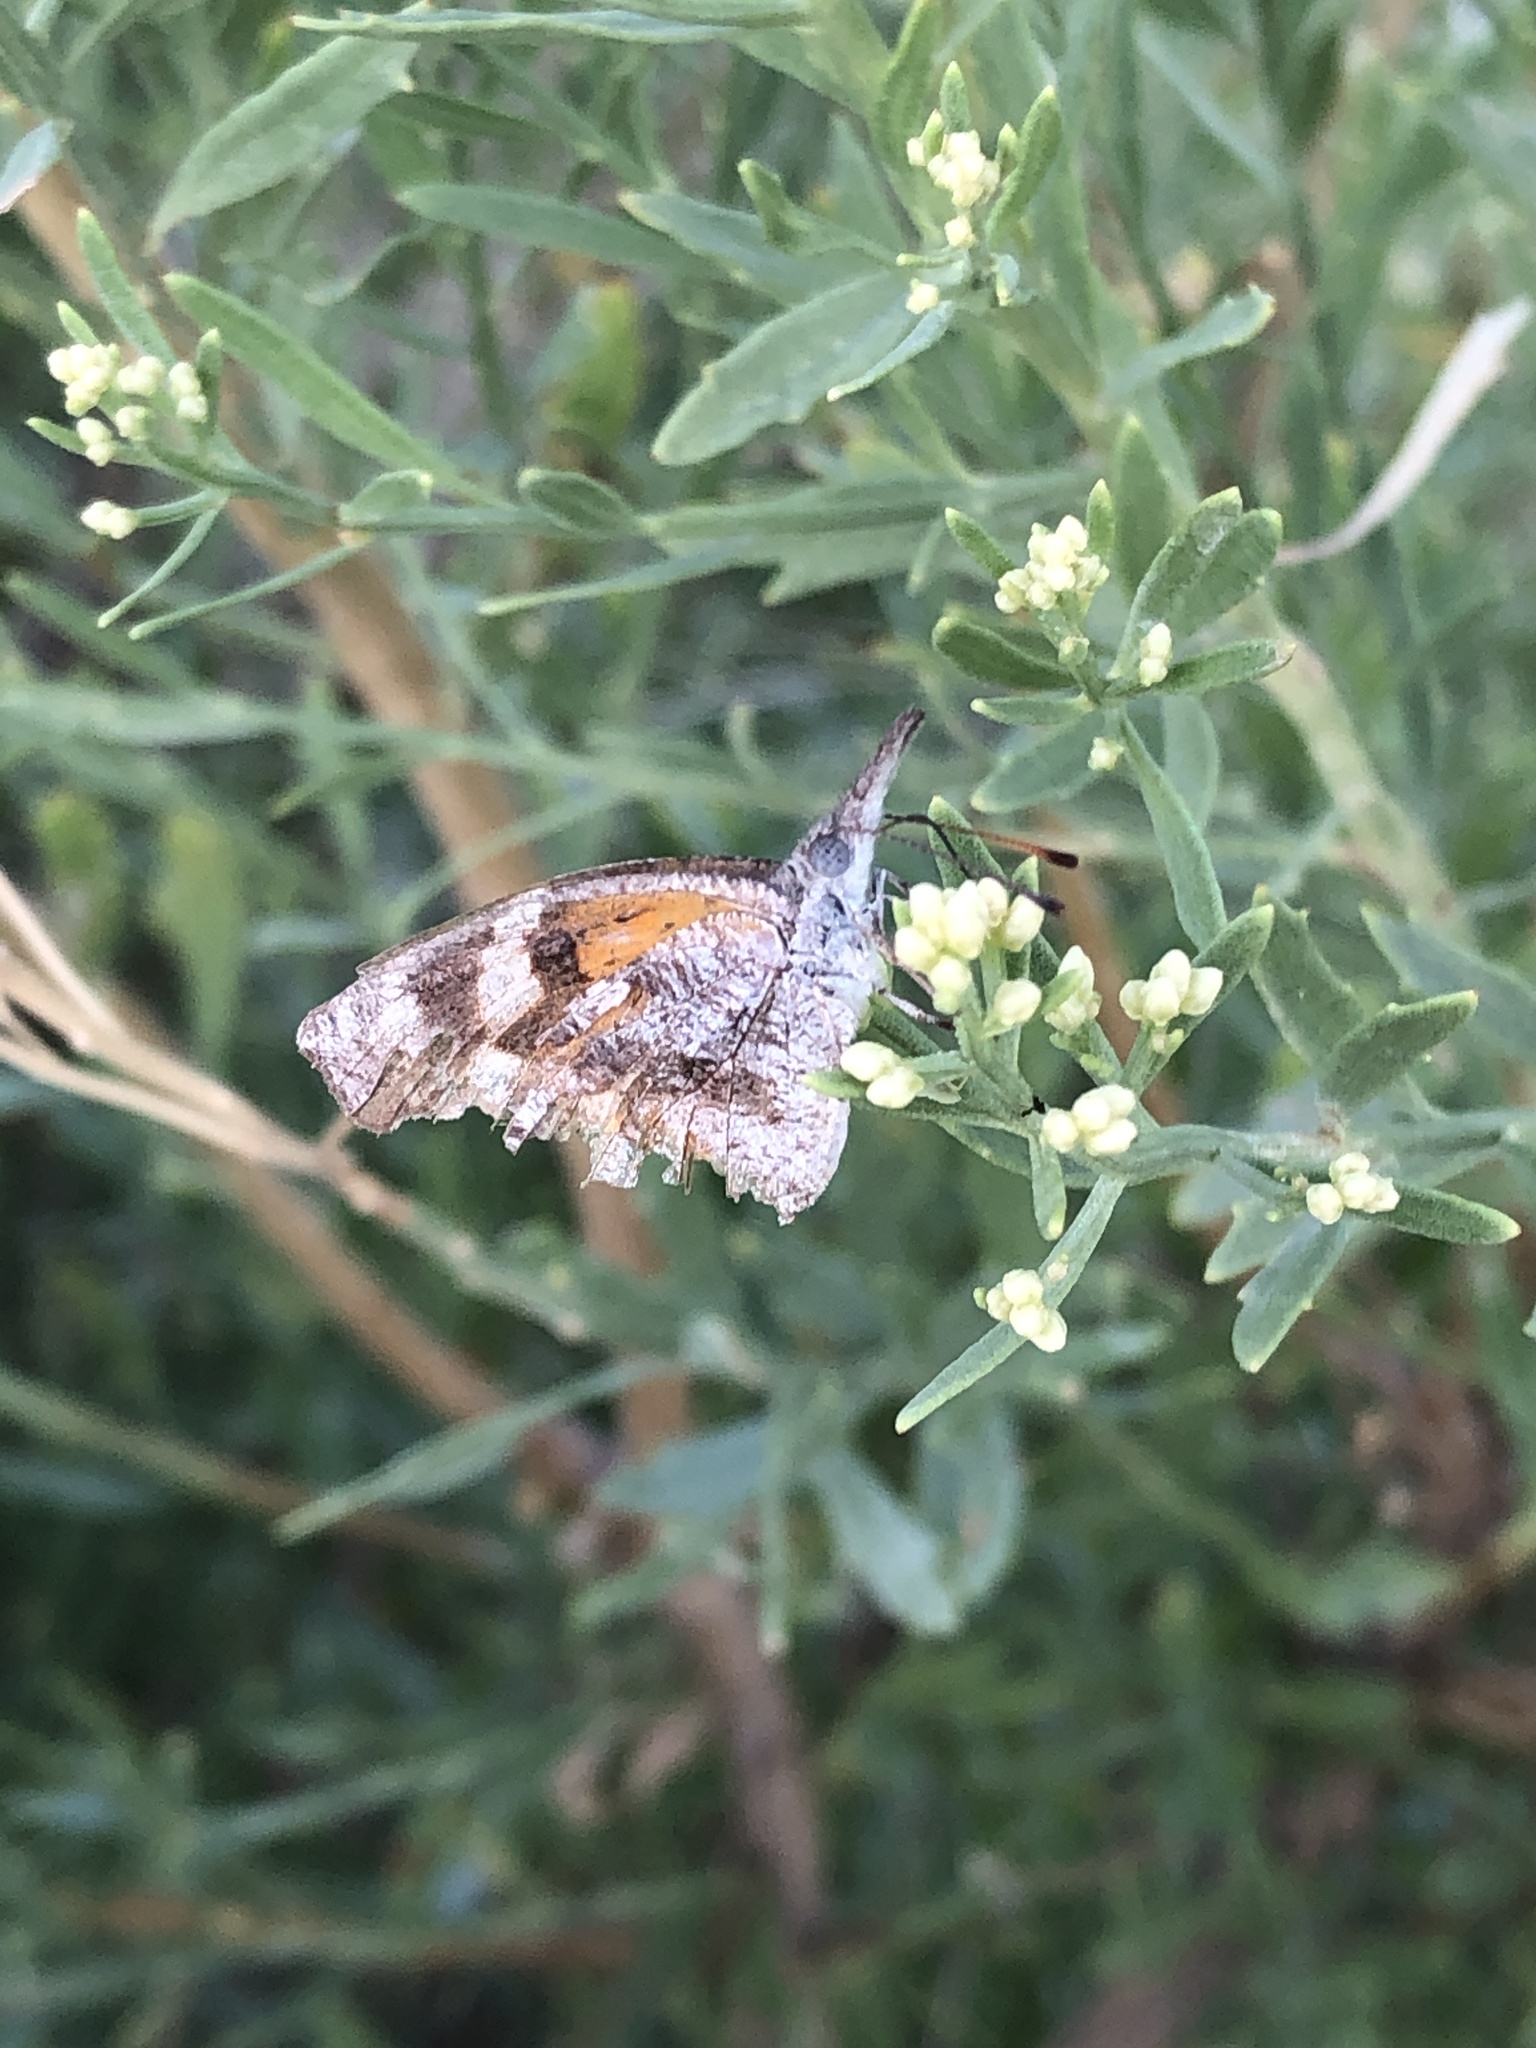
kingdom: Animalia
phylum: Arthropoda
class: Insecta
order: Lepidoptera
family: Nymphalidae
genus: Libytheana
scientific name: Libytheana carinenta
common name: American snout
